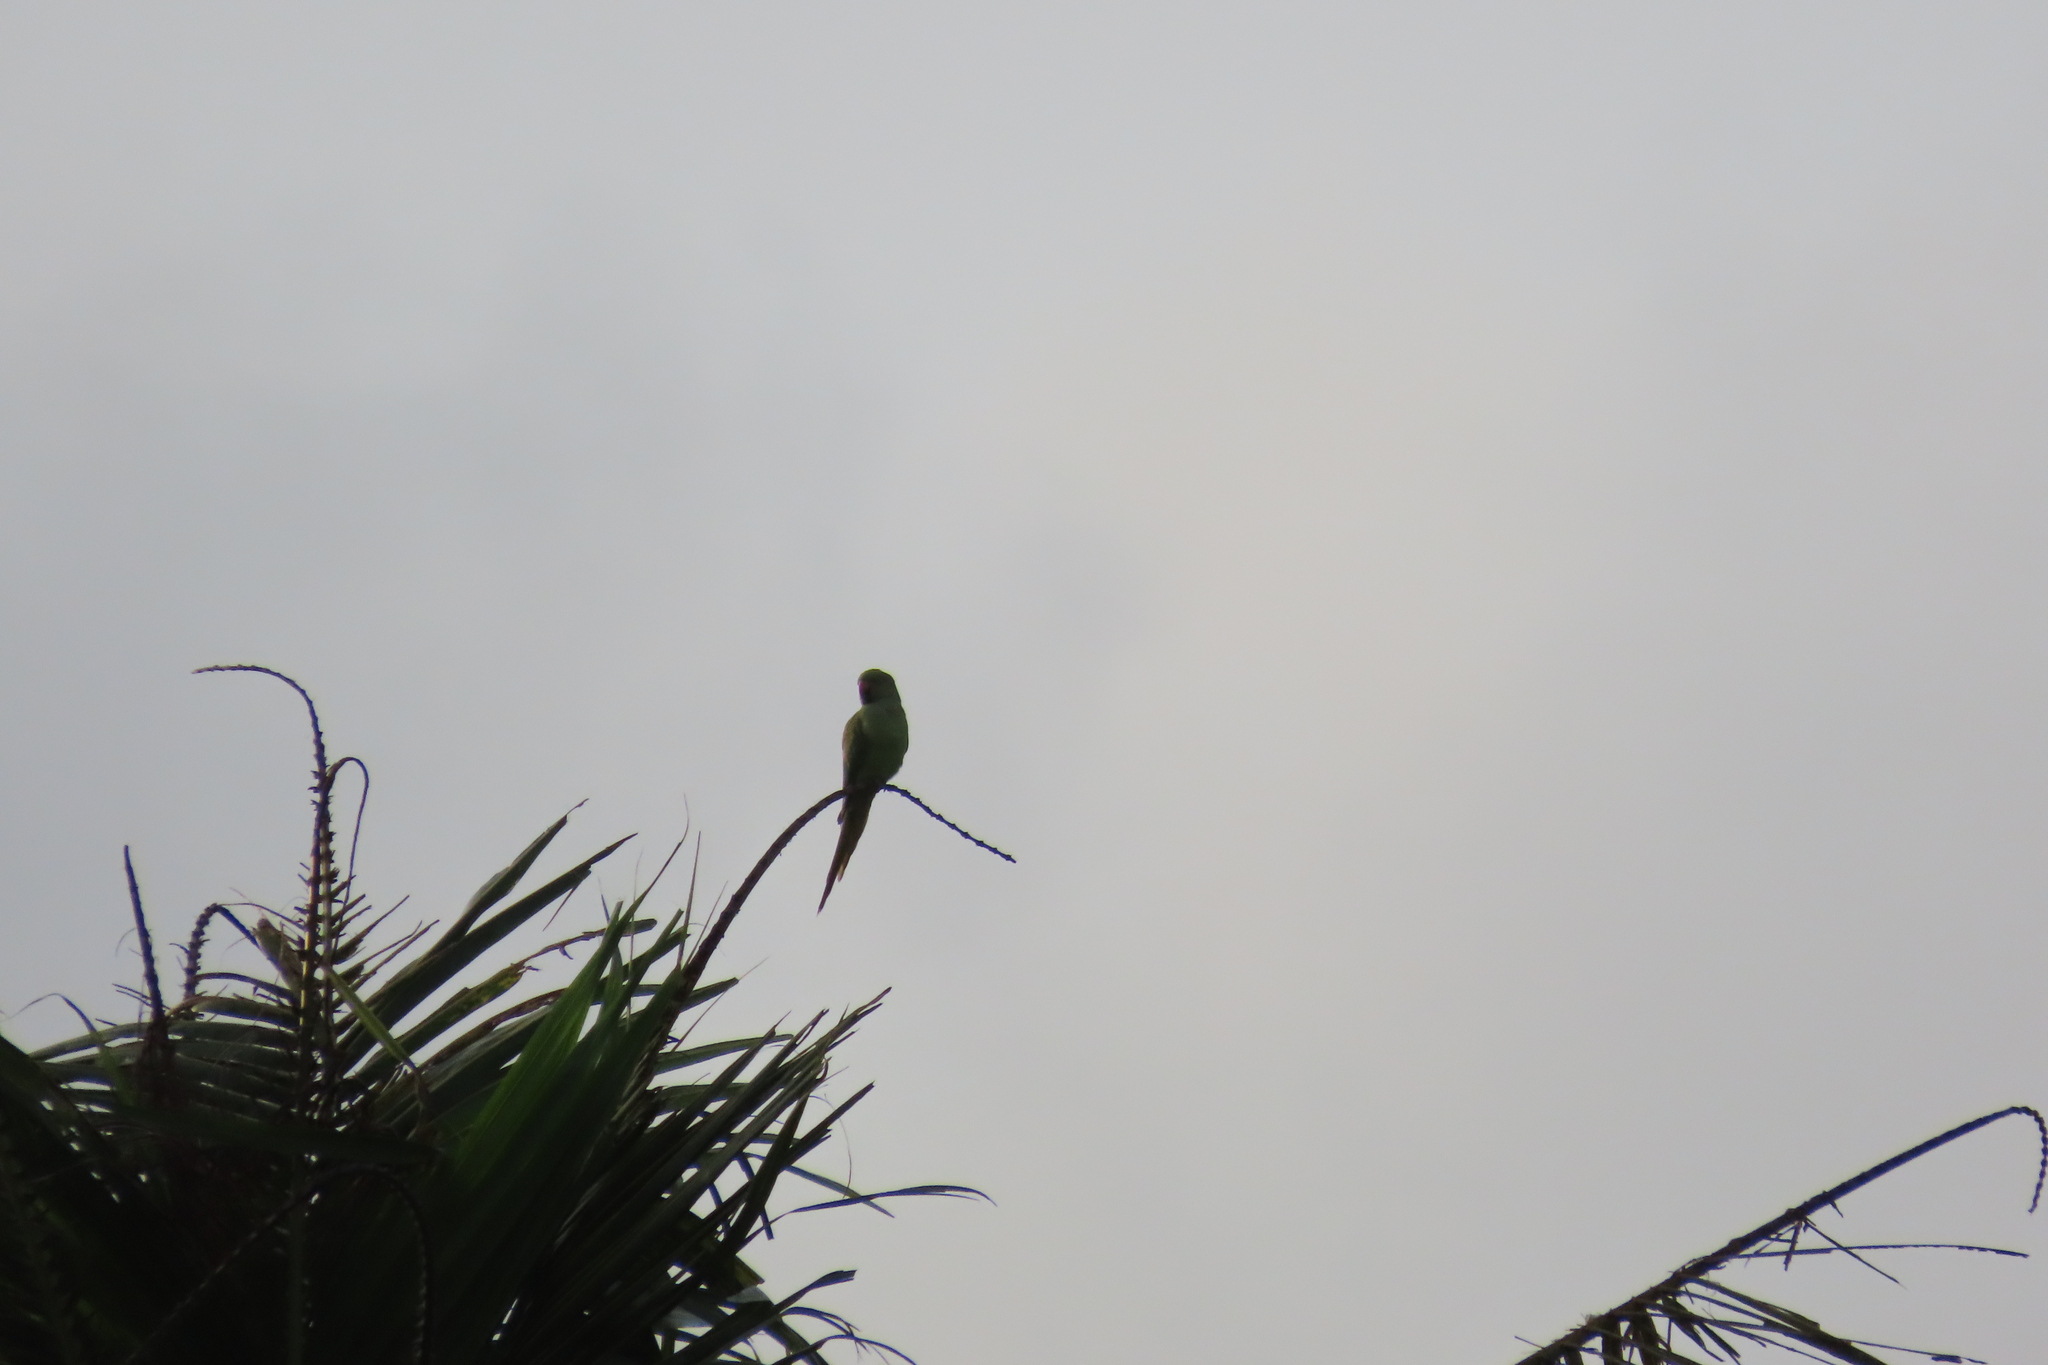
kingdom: Animalia
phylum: Chordata
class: Aves
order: Psittaciformes
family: Psittacidae
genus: Psittacula
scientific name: Psittacula krameri
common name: Rose-ringed parakeet
